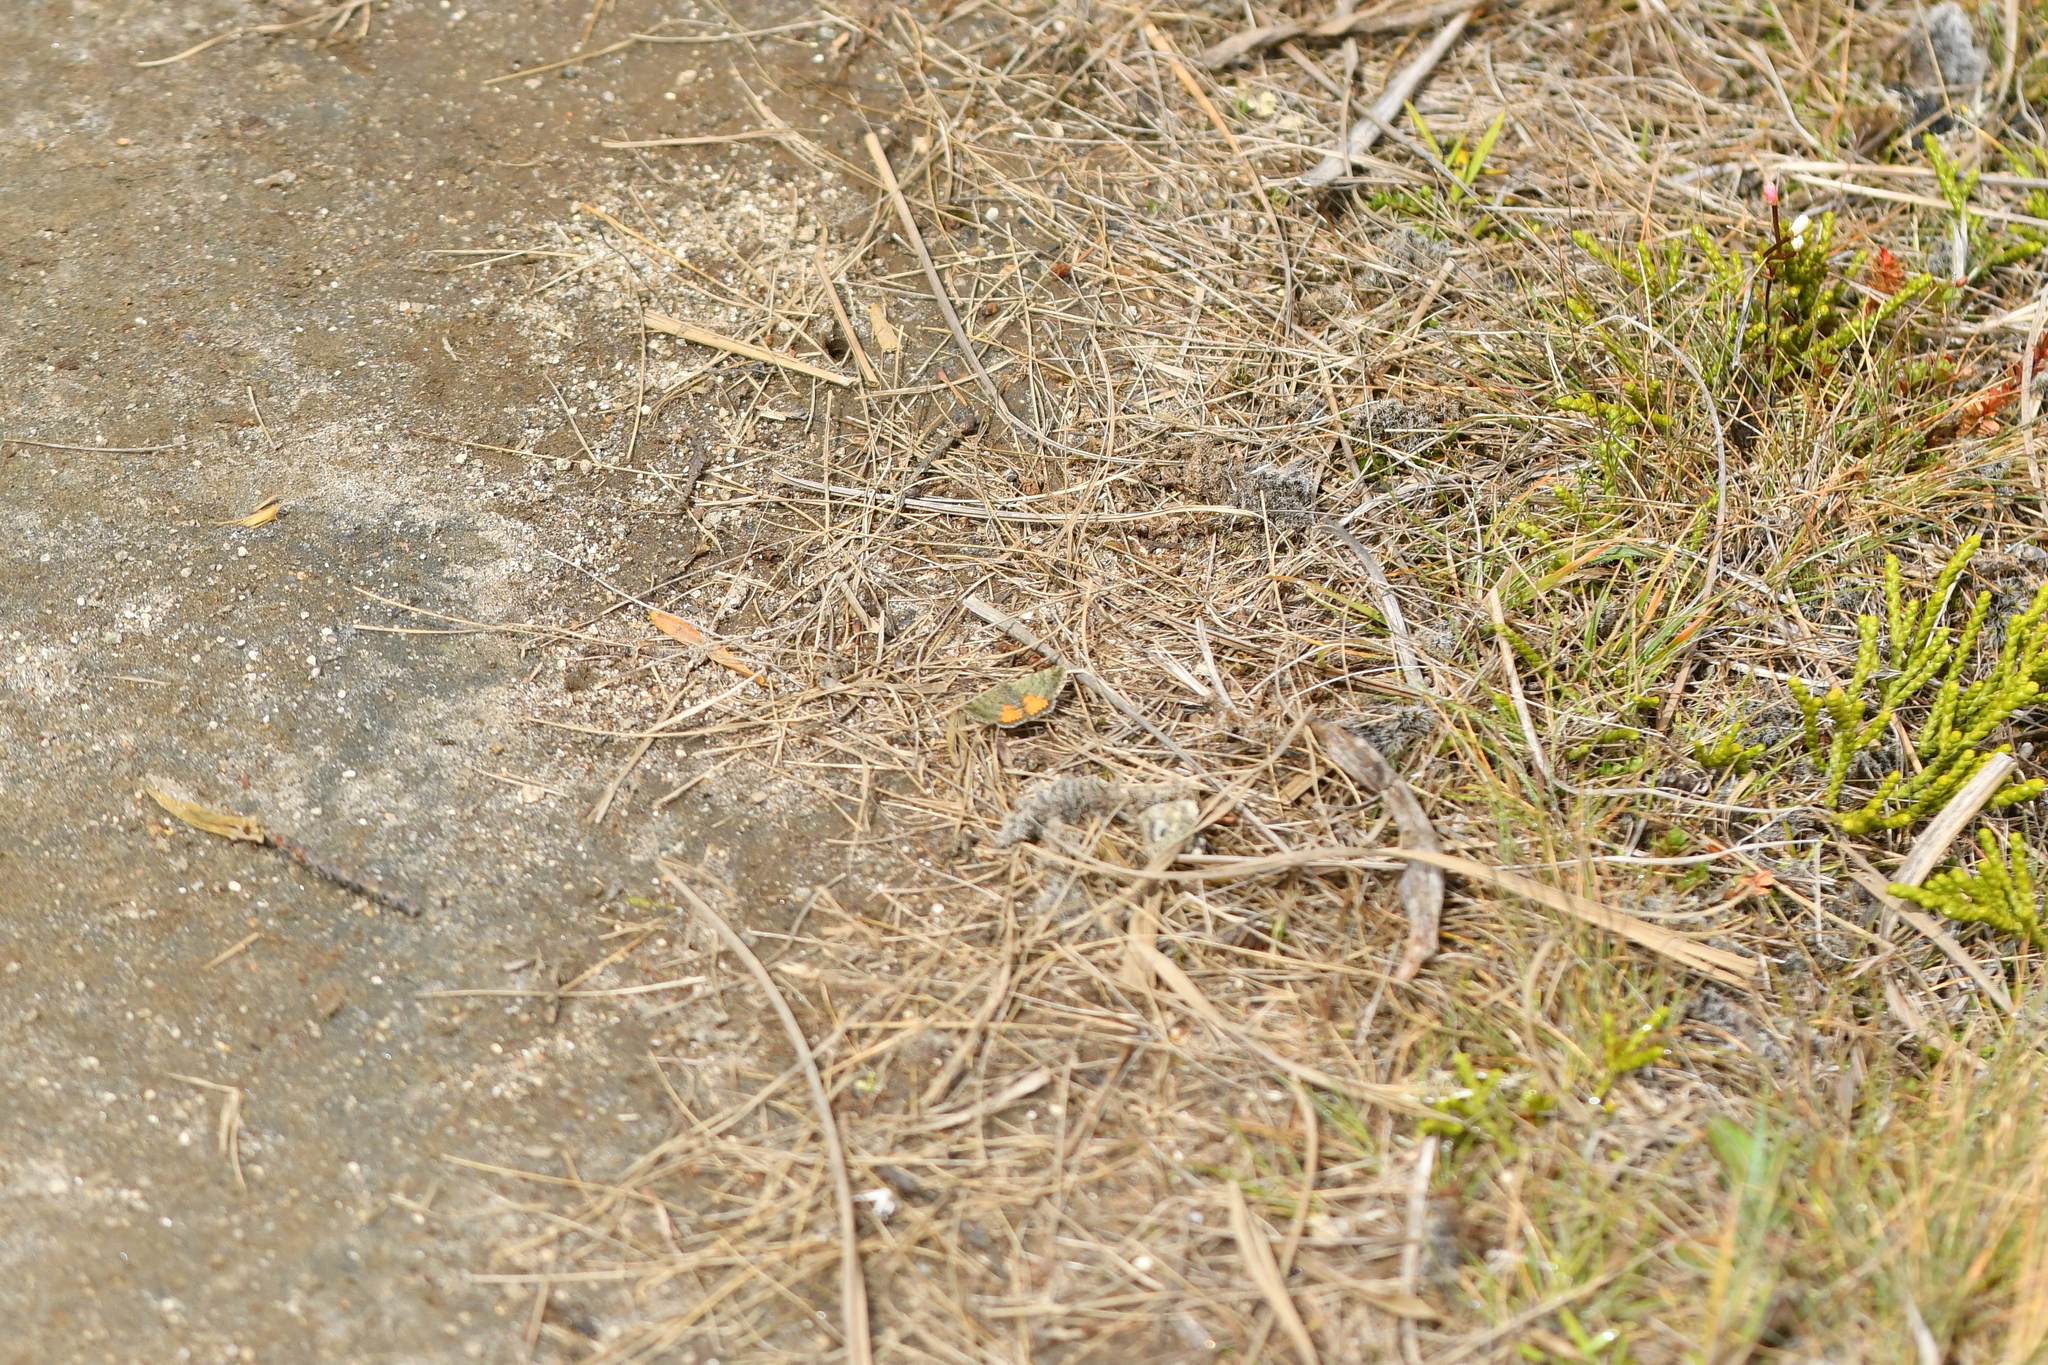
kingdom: Animalia
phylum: Arthropoda
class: Insecta
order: Lepidoptera
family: Geometridae
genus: Paranotoreas
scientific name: Paranotoreas brephosata
